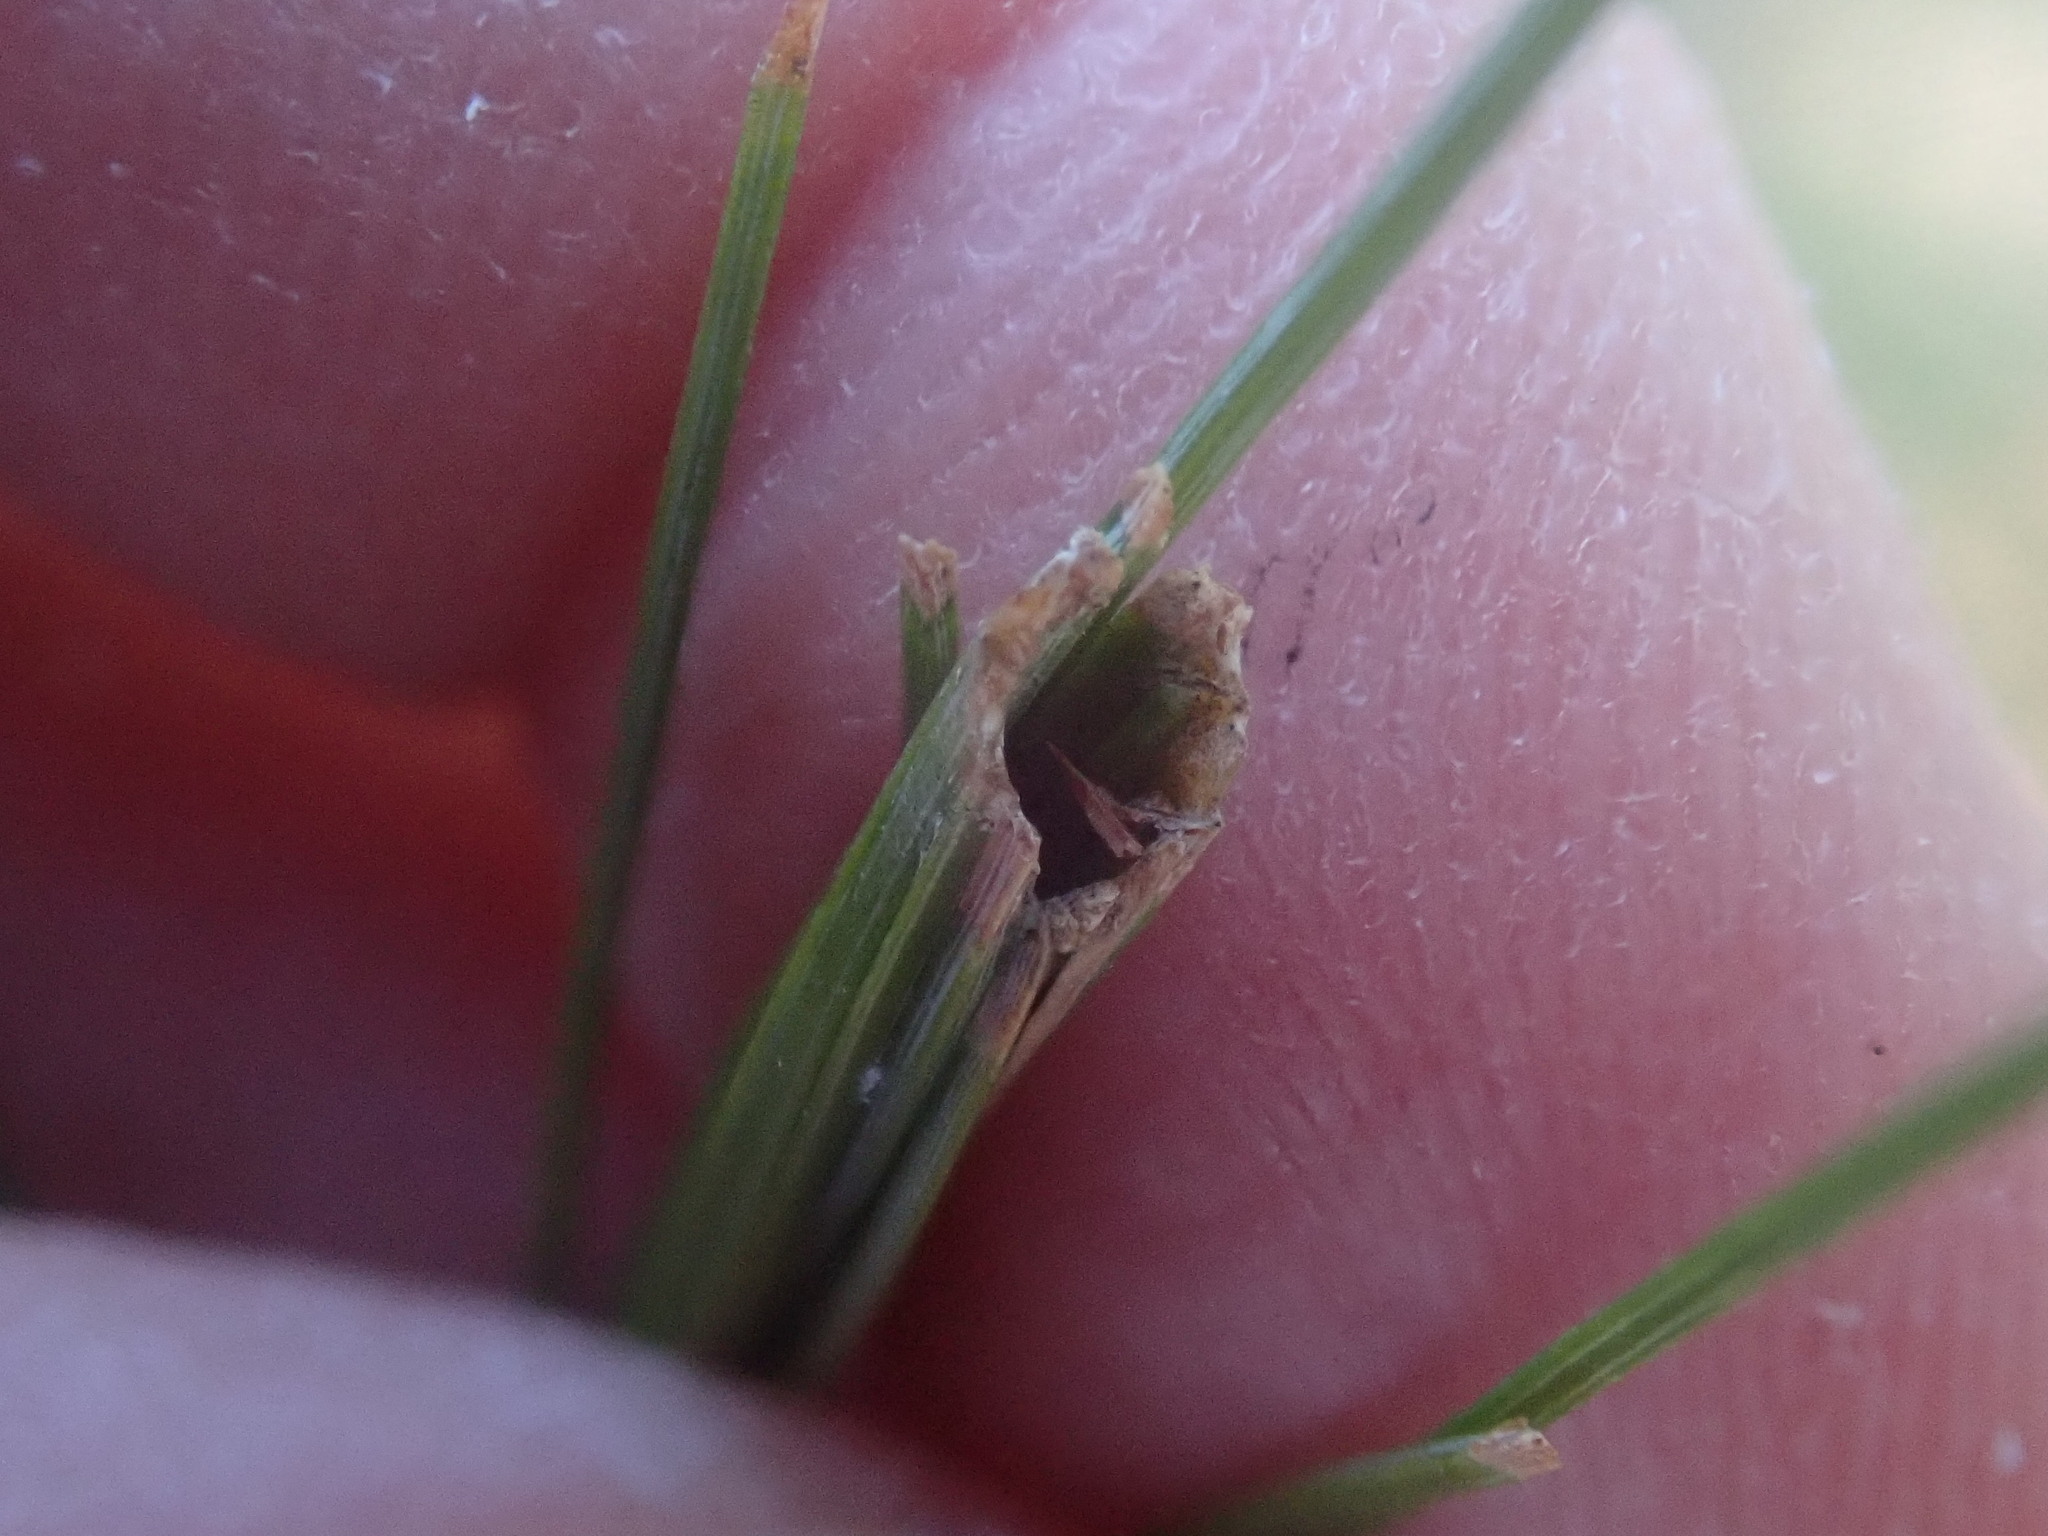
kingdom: Animalia
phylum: Arthropoda
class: Insecta
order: Lepidoptera
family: Tortricidae
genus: Argyrotaenia
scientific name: Argyrotaenia pinatubana
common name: Pine tube moth
